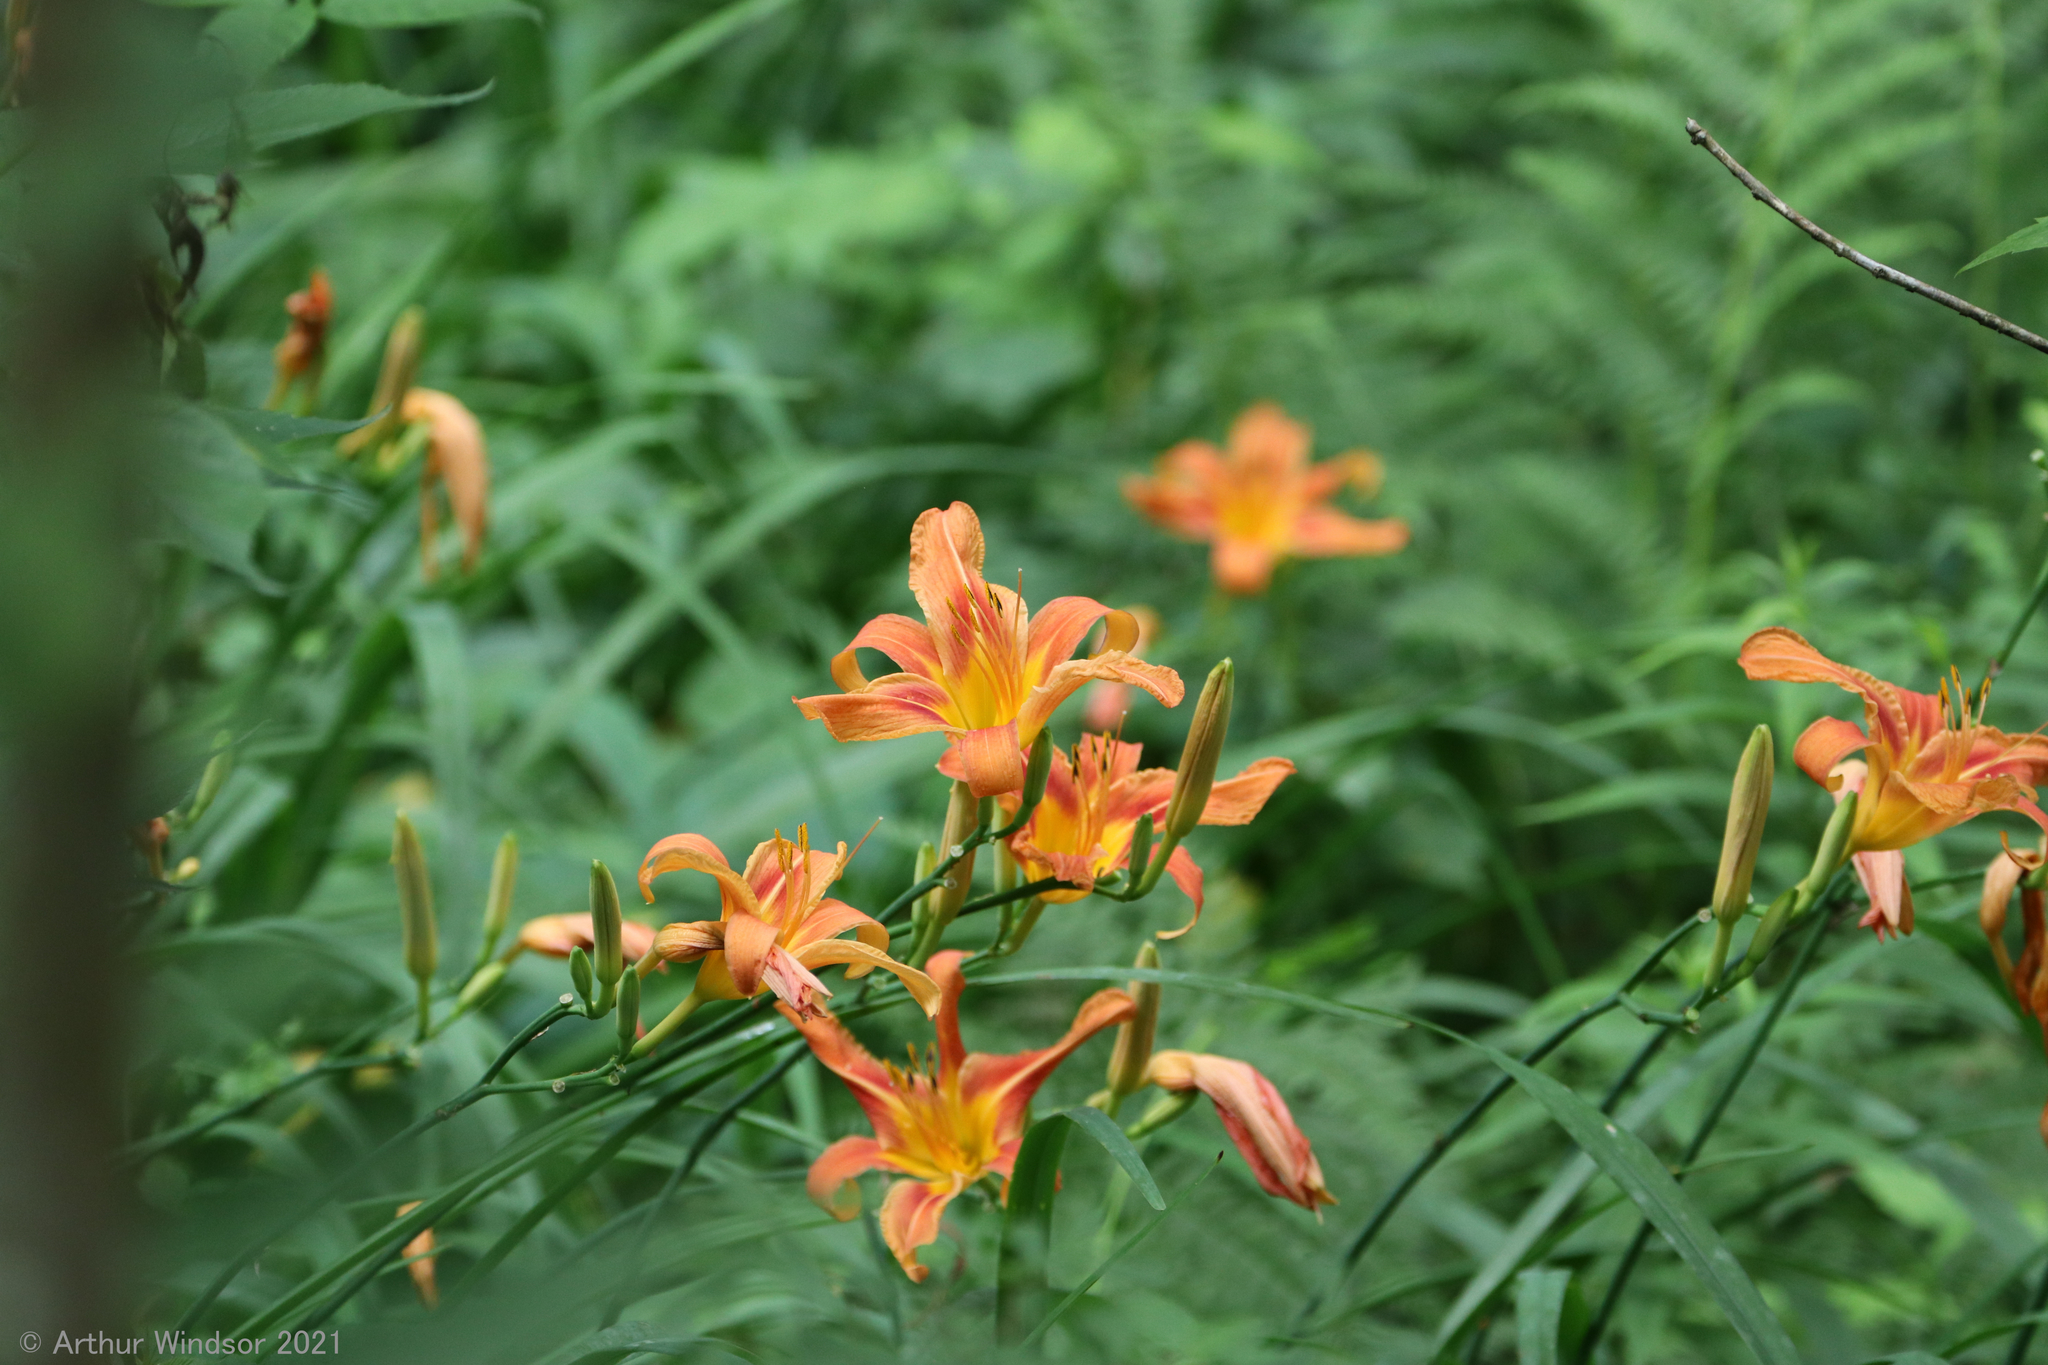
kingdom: Plantae
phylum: Tracheophyta
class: Liliopsida
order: Asparagales
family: Asphodelaceae
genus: Hemerocallis
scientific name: Hemerocallis fulva
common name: Orange day-lily
